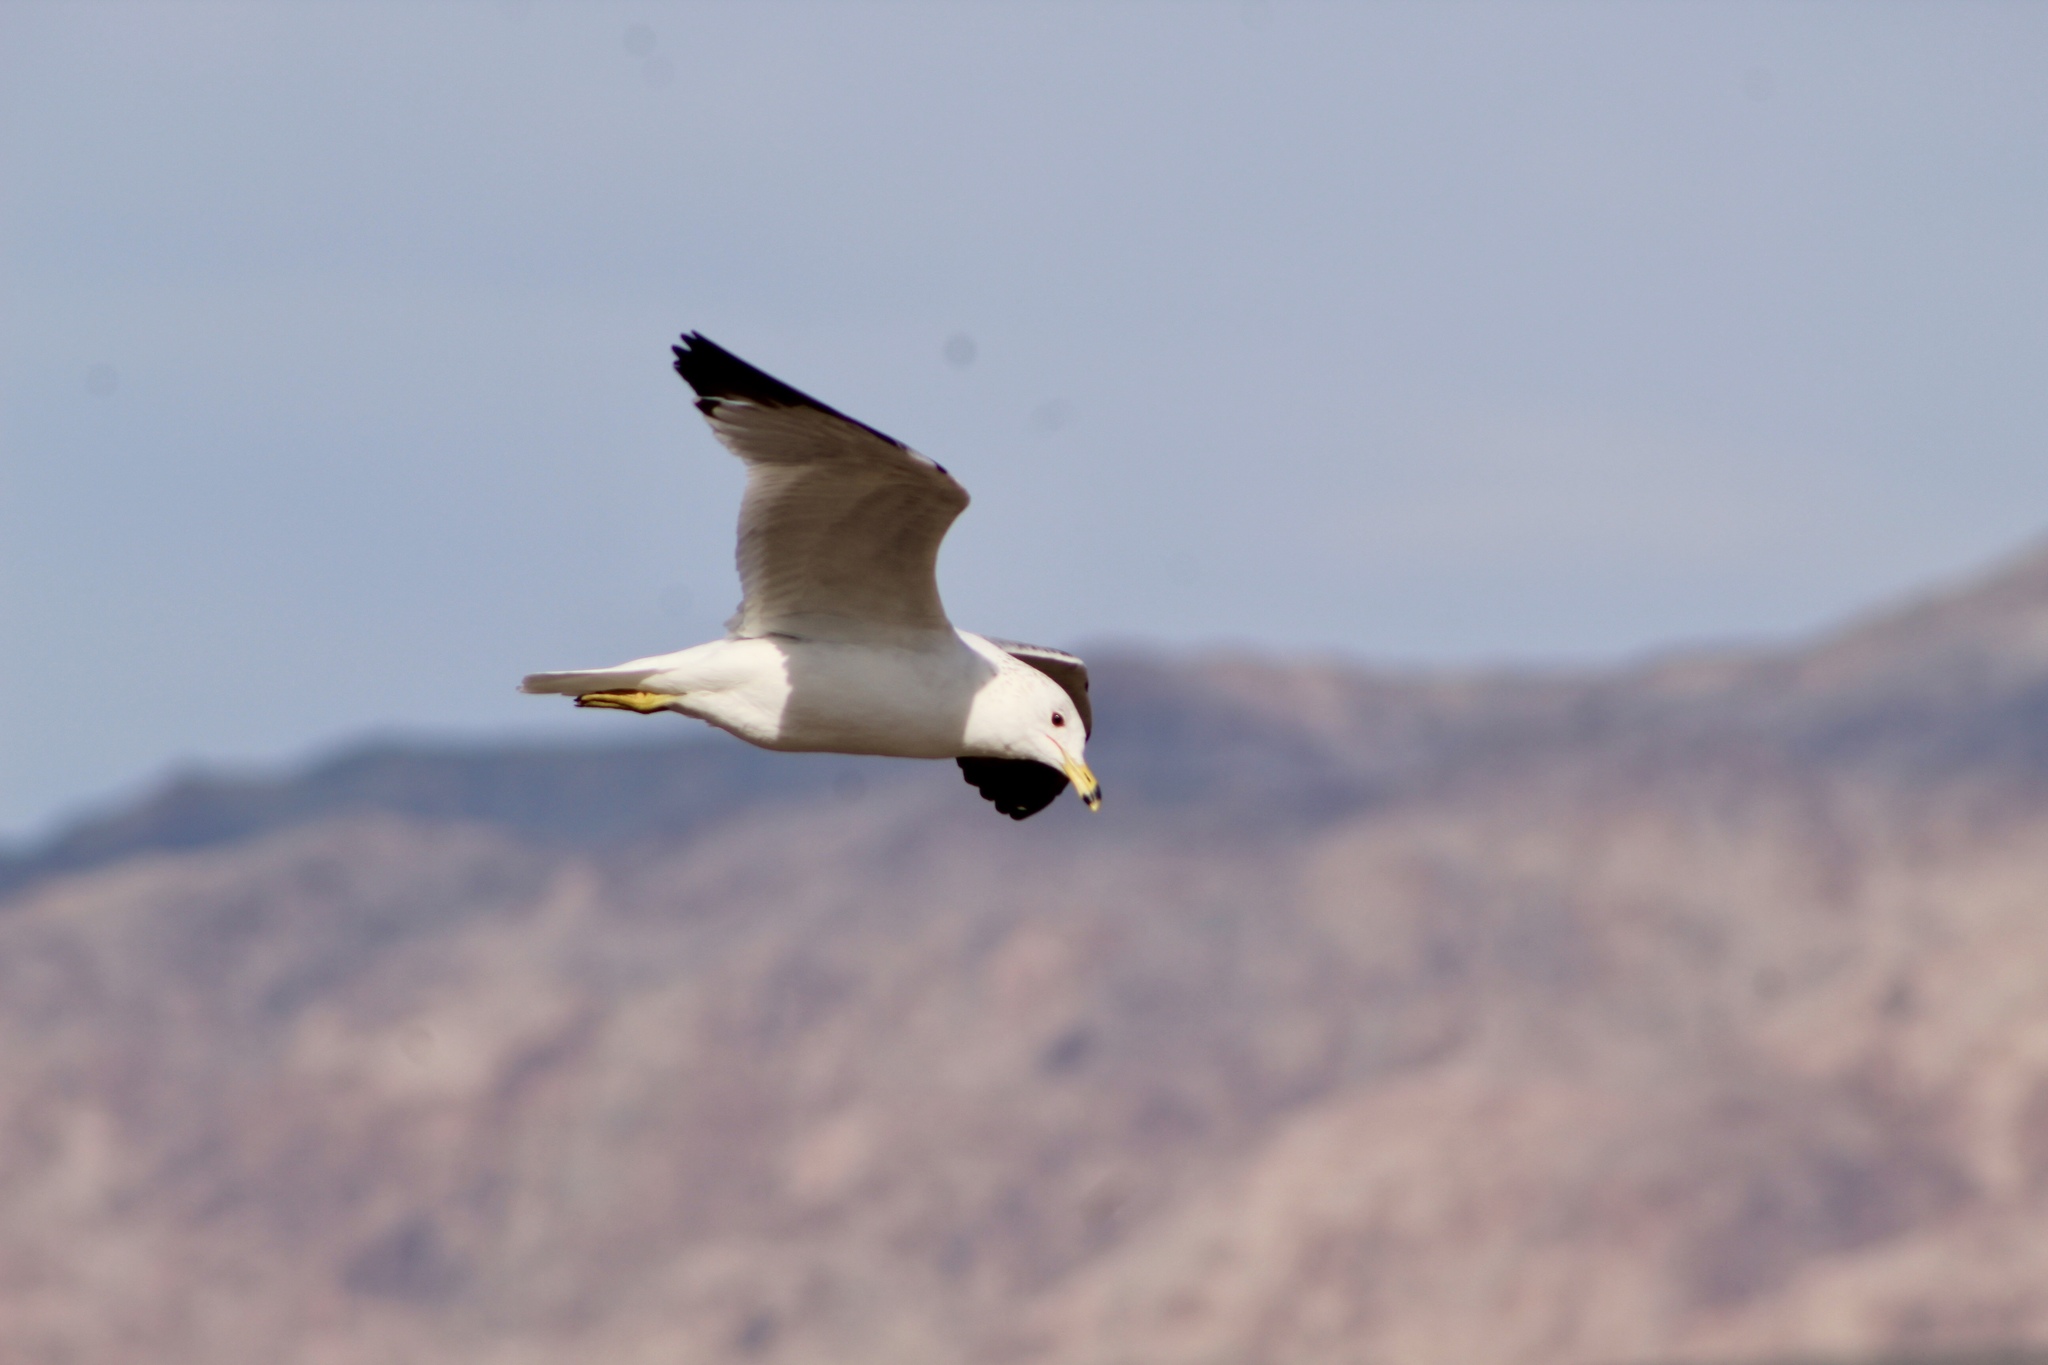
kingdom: Animalia
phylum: Chordata
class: Aves
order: Charadriiformes
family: Laridae
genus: Larus
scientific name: Larus delawarensis
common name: Ring-billed gull
